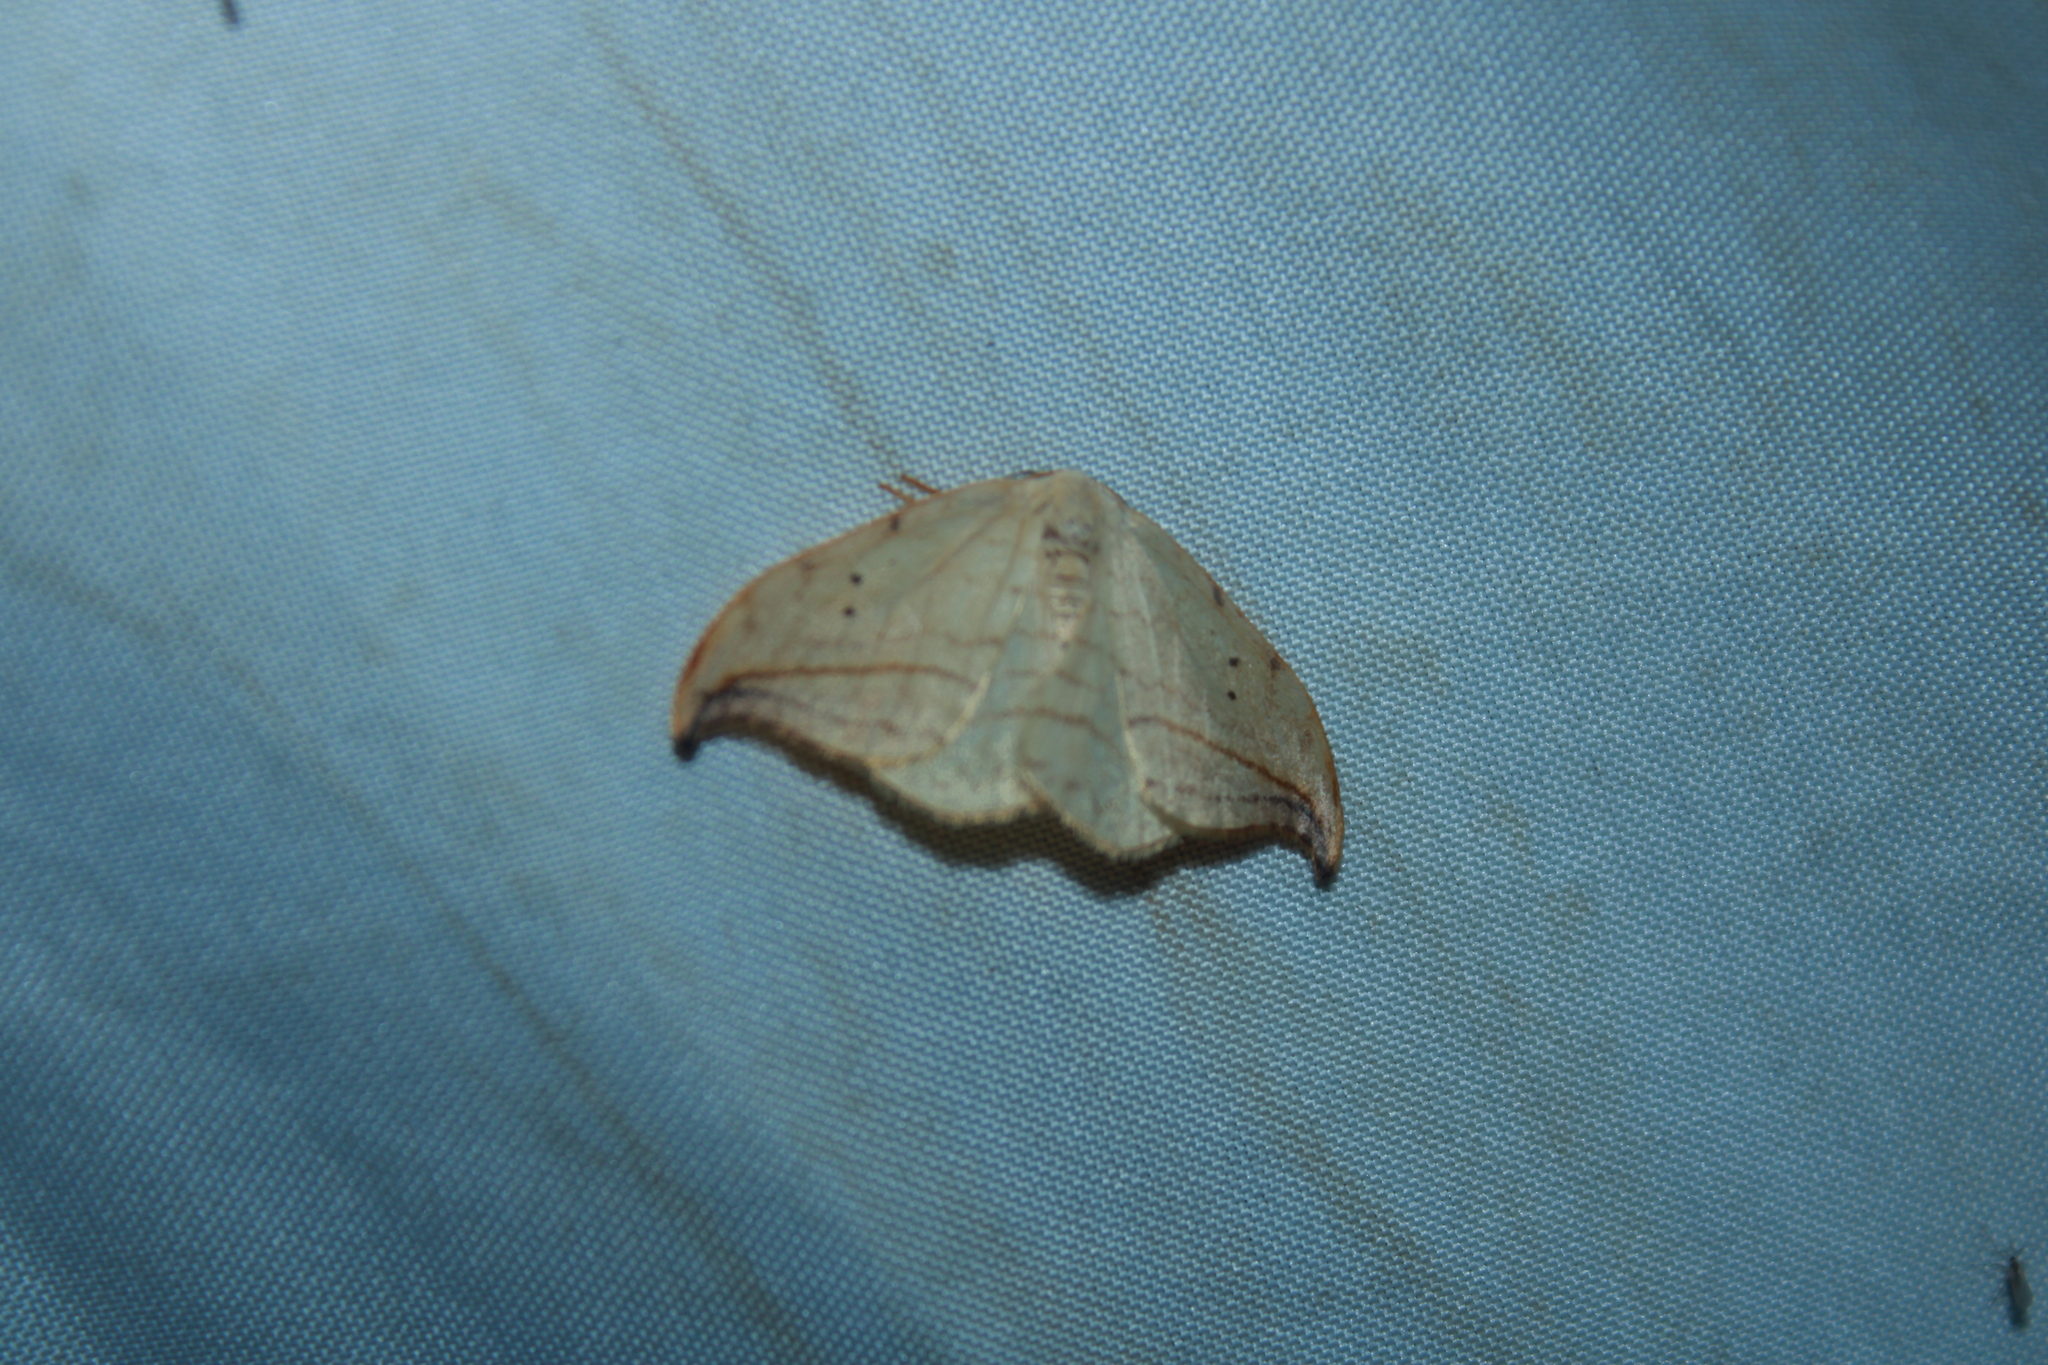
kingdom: Animalia
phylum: Arthropoda
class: Insecta
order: Lepidoptera
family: Drepanidae
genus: Drepana
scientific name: Drepana arcuata
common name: Arched hooktip moth
